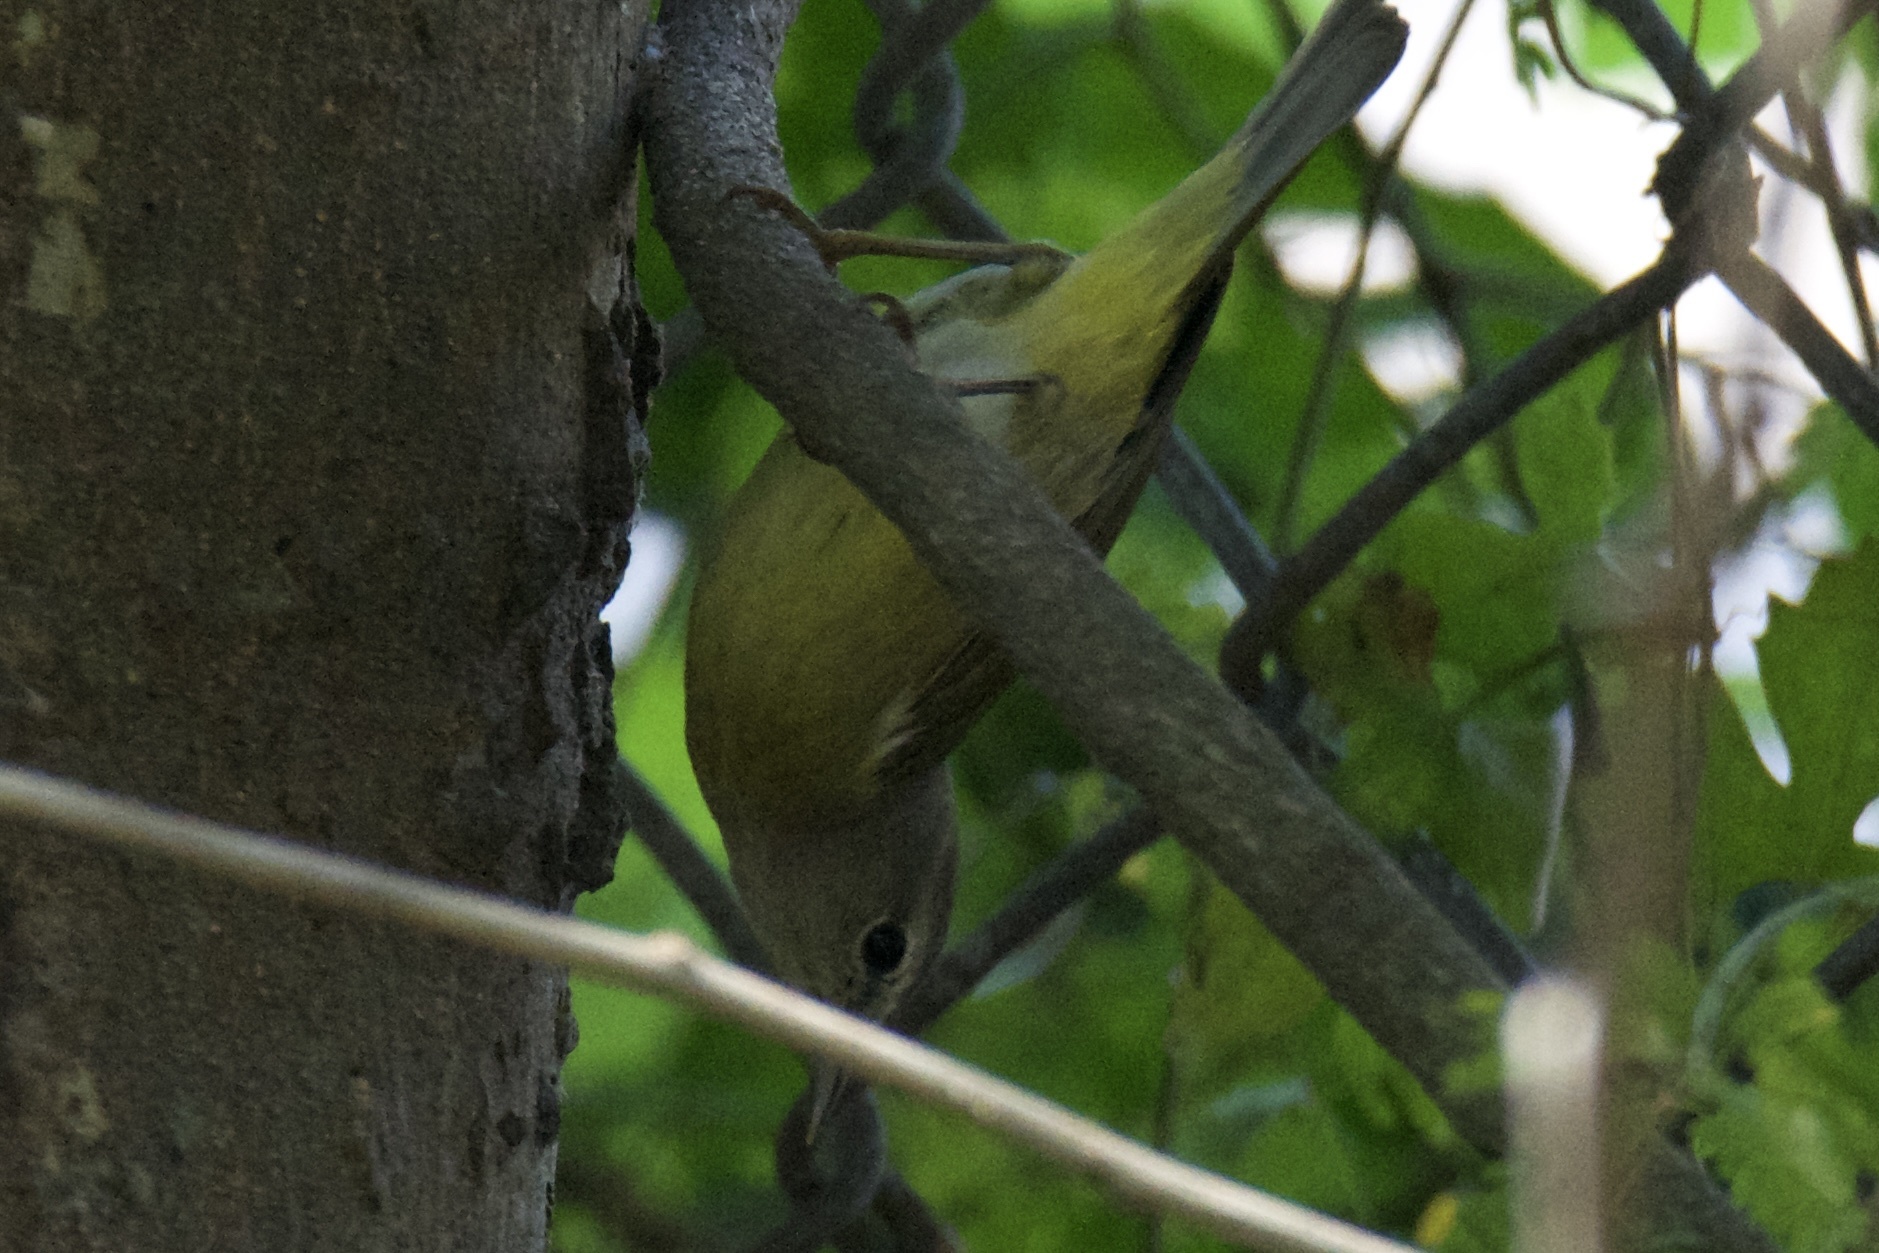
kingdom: Animalia
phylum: Chordata
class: Aves
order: Passeriformes
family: Parulidae
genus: Leiothlypis
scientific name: Leiothlypis celata
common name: Orange-crowned warbler
